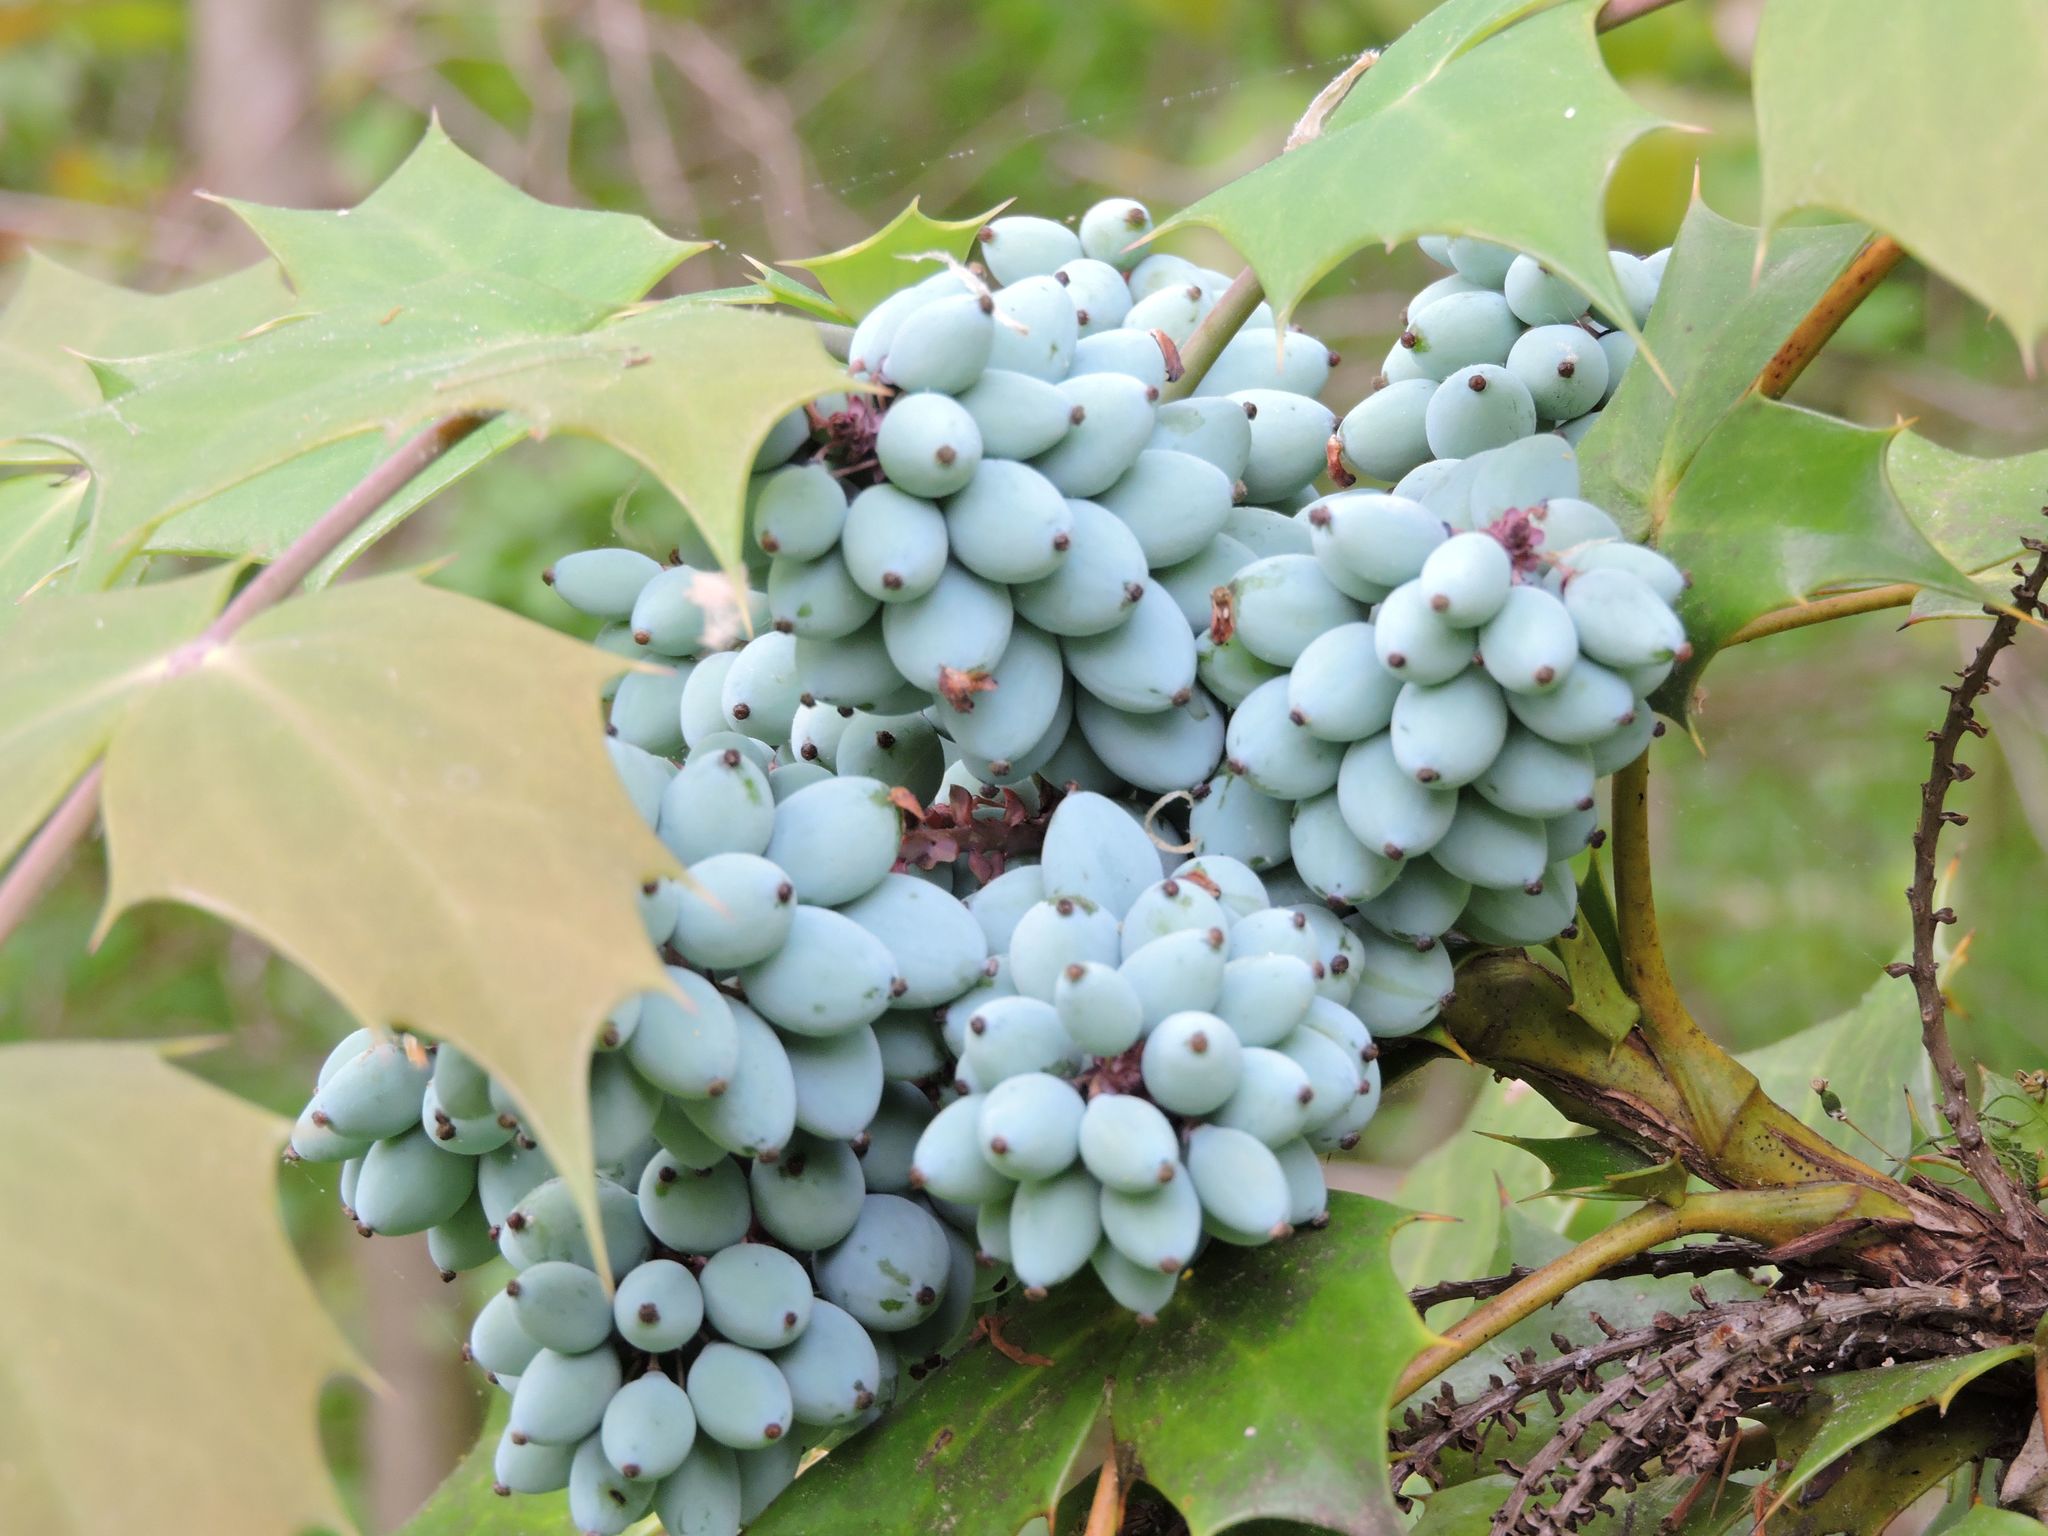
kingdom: Plantae
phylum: Tracheophyta
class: Magnoliopsida
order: Ranunculales
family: Berberidaceae
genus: Mahonia
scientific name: Mahonia bealei
